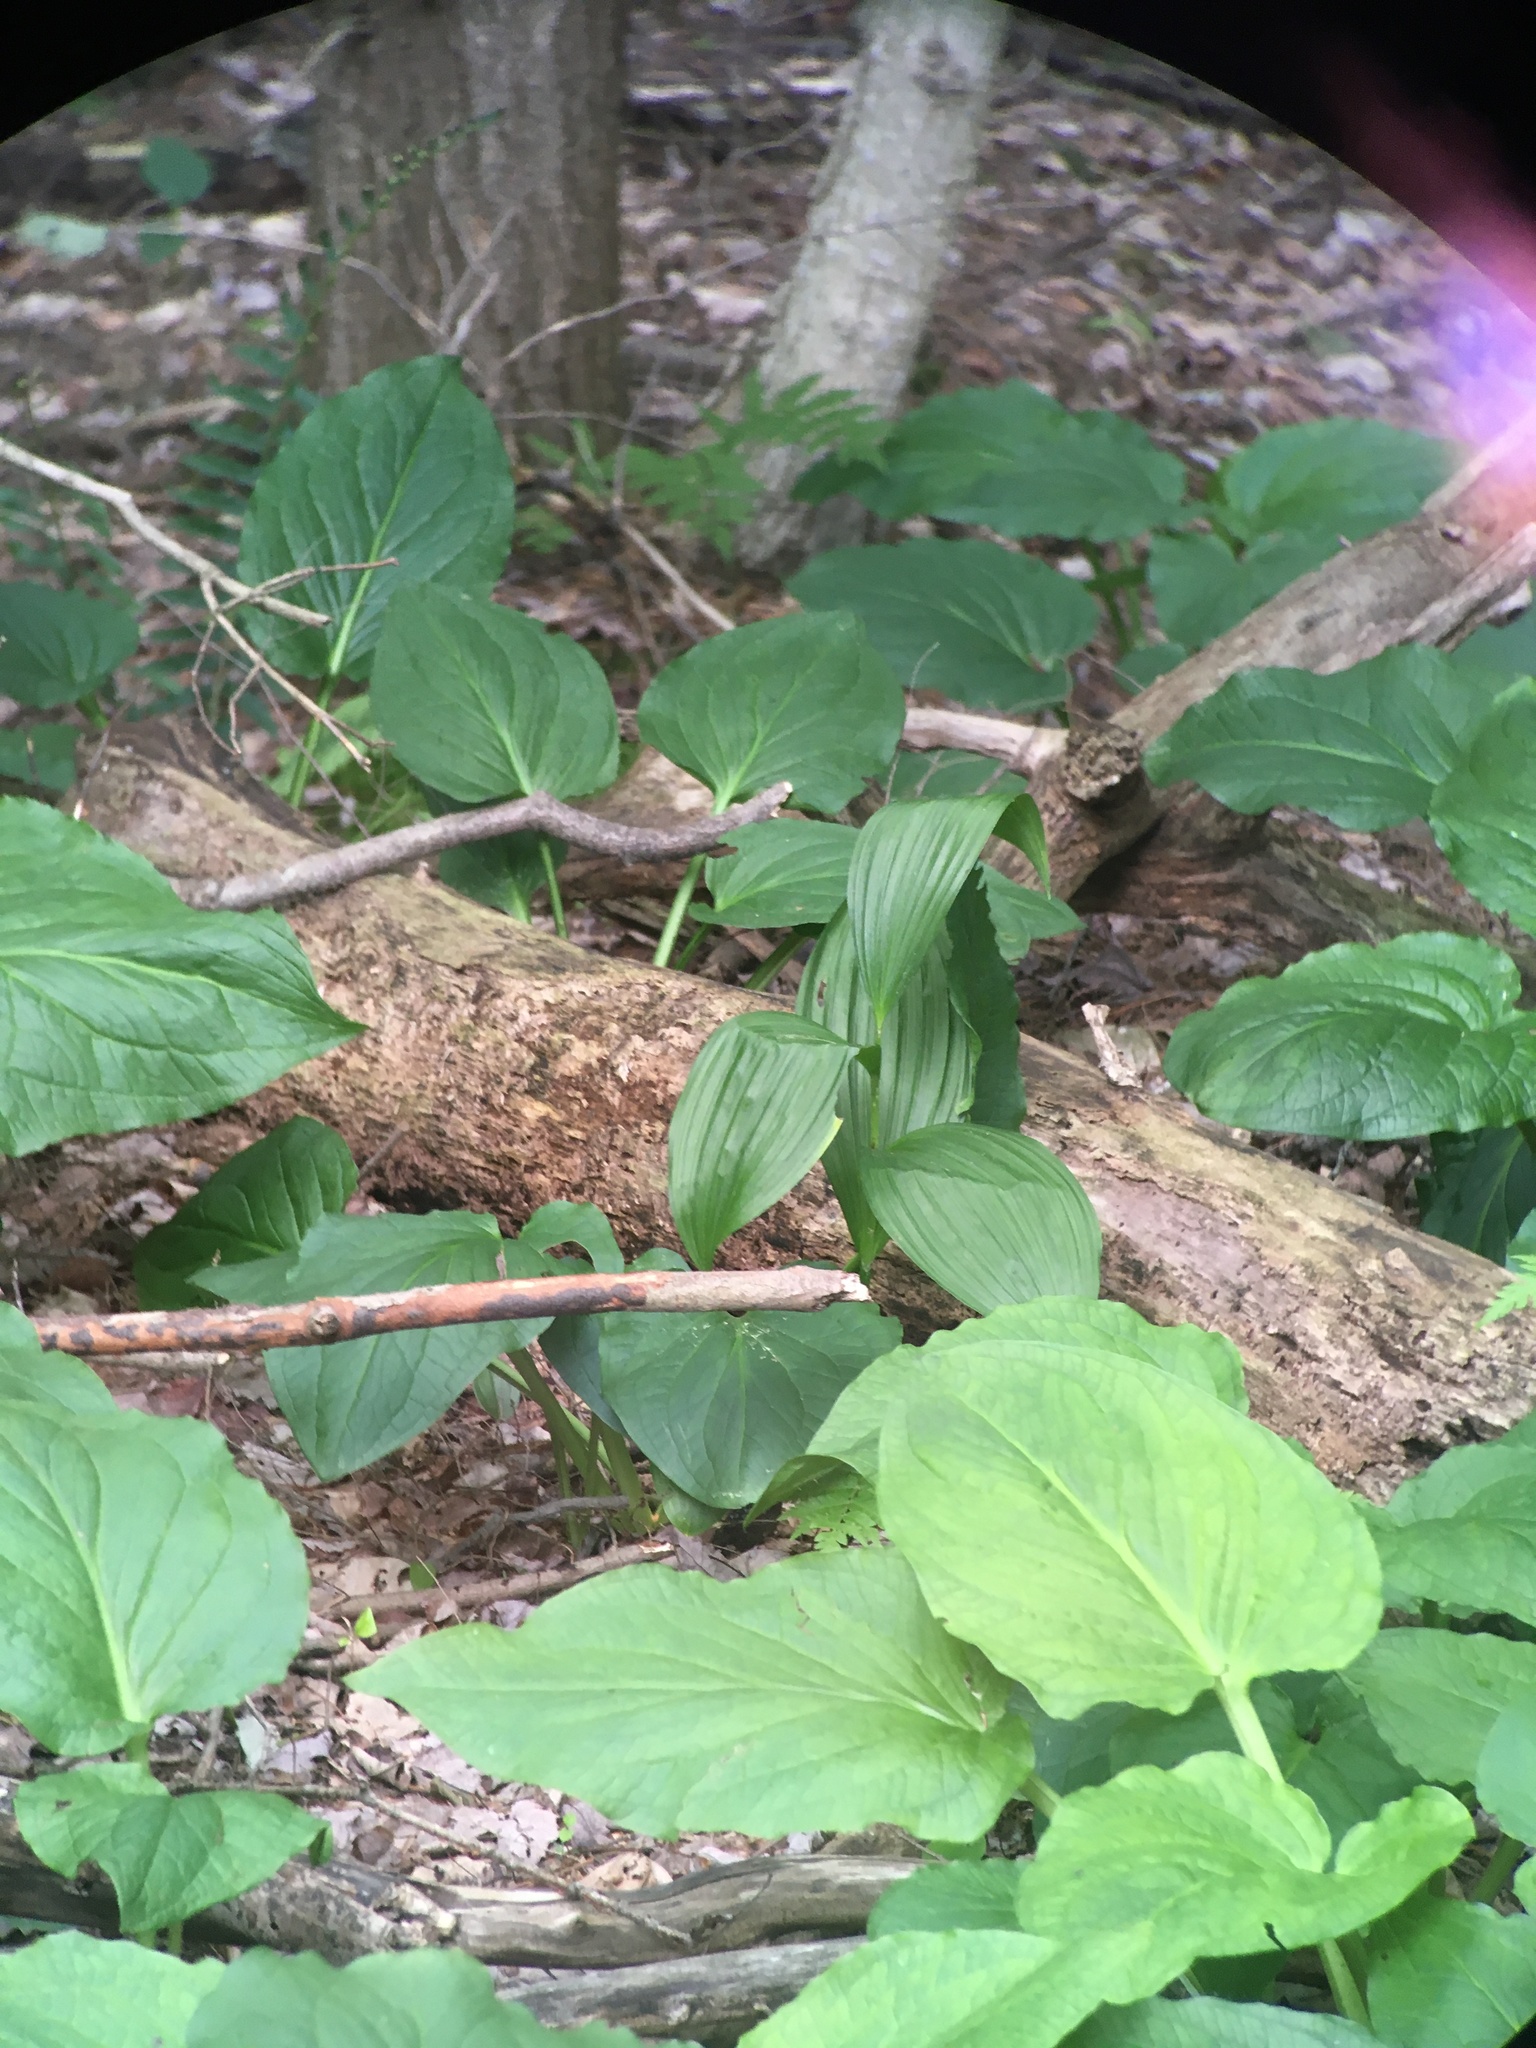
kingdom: Plantae
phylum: Tracheophyta
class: Liliopsida
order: Liliales
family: Melanthiaceae
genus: Veratrum
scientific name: Veratrum viride
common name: American false hellebore
